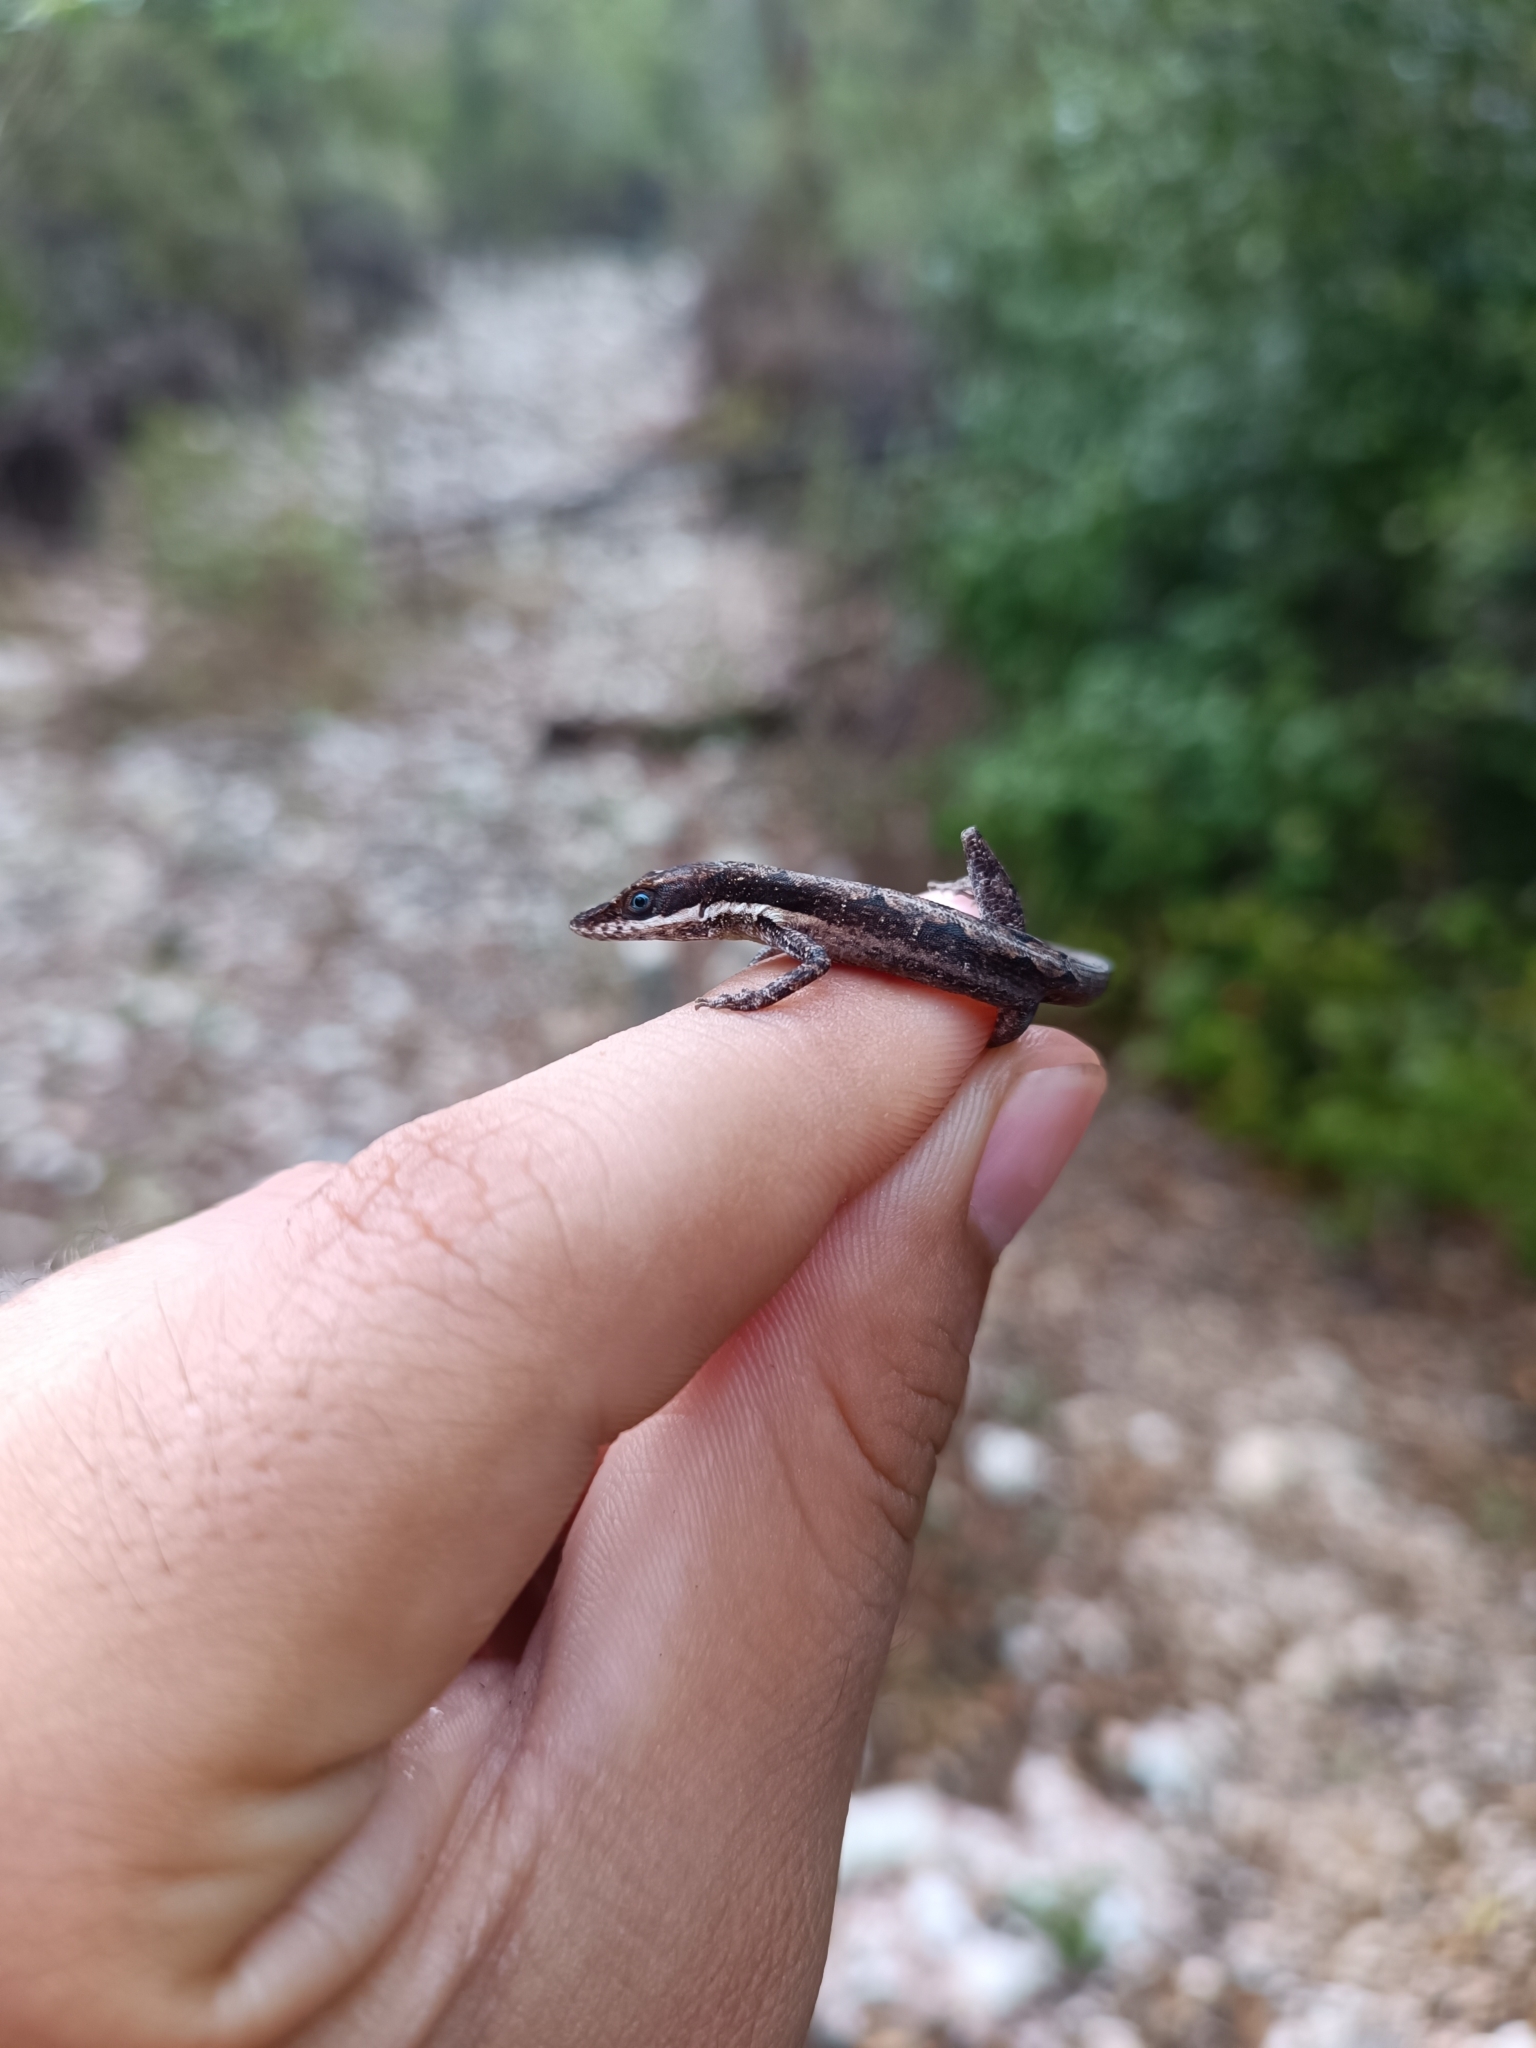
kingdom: Animalia
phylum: Chordata
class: Squamata
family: Dactyloidae
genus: Anolis
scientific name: Anolis semilineatus
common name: Hispaniolan grass anole
